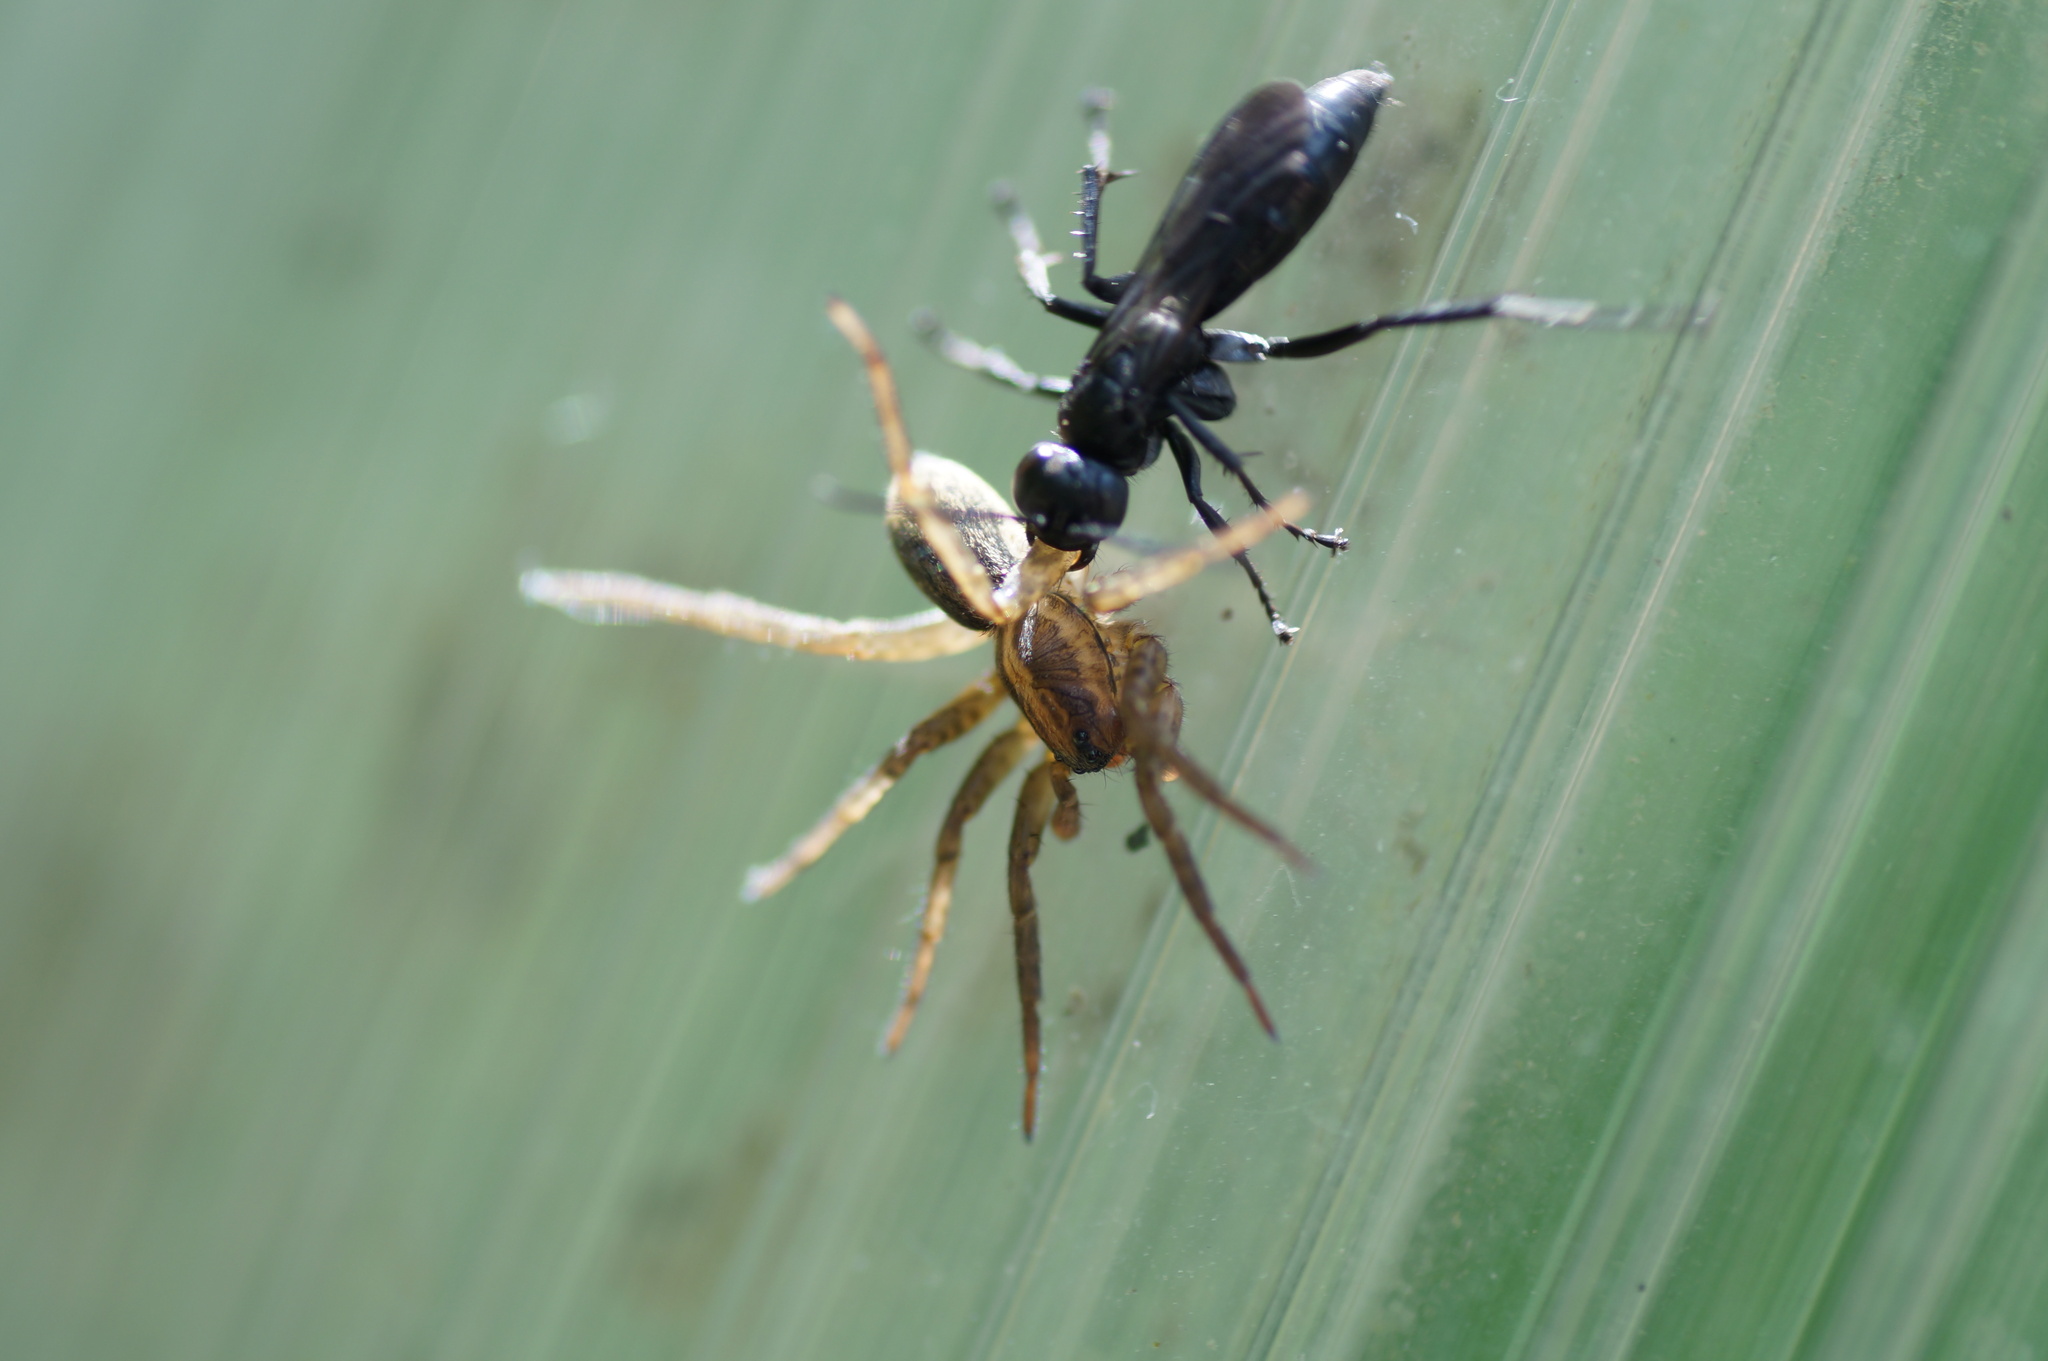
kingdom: Animalia
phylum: Arthropoda
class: Insecta
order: Hymenoptera
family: Pompilidae
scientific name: Pompilidae
